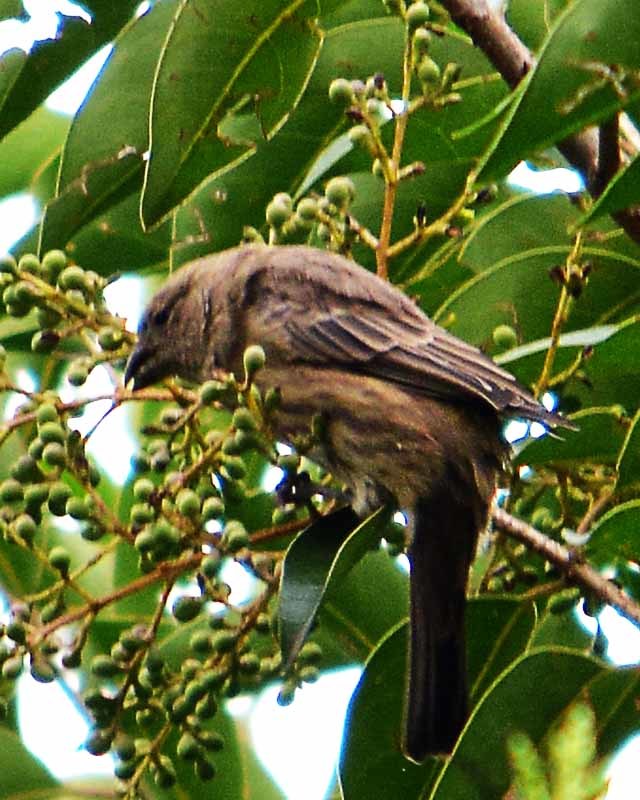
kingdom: Animalia
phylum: Chordata
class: Aves
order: Passeriformes
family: Fringillidae
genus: Haemorhous
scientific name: Haemorhous mexicanus
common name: House finch
